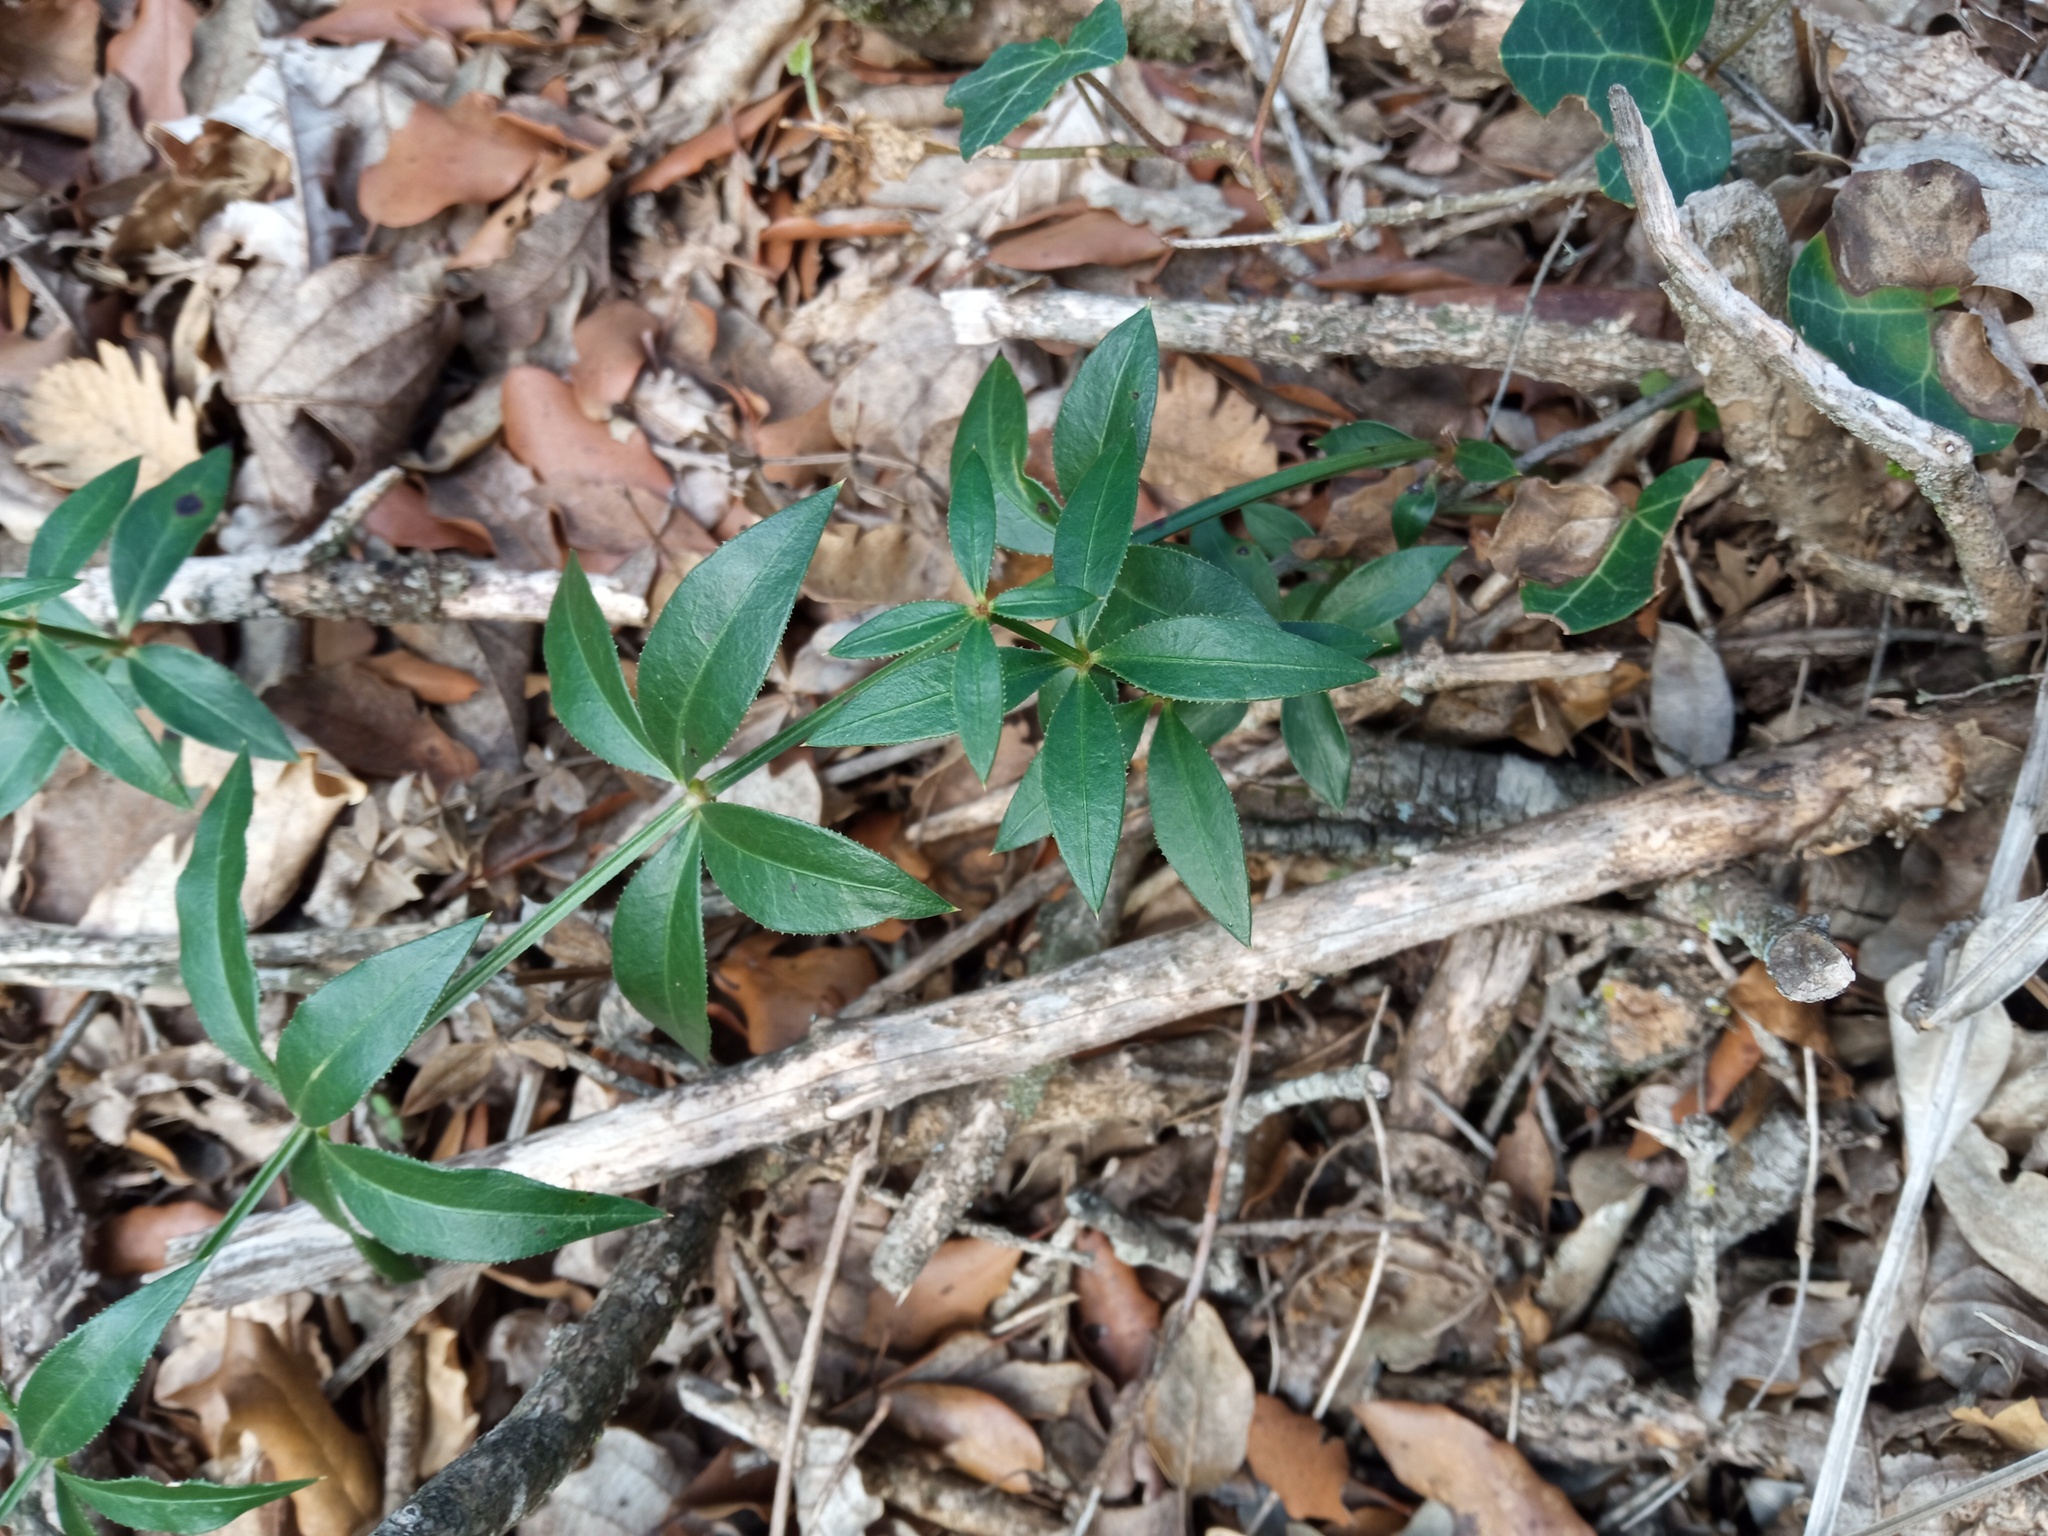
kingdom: Plantae
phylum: Tracheophyta
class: Magnoliopsida
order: Gentianales
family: Rubiaceae
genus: Rubia
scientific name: Rubia peregrina
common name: Wild madder
